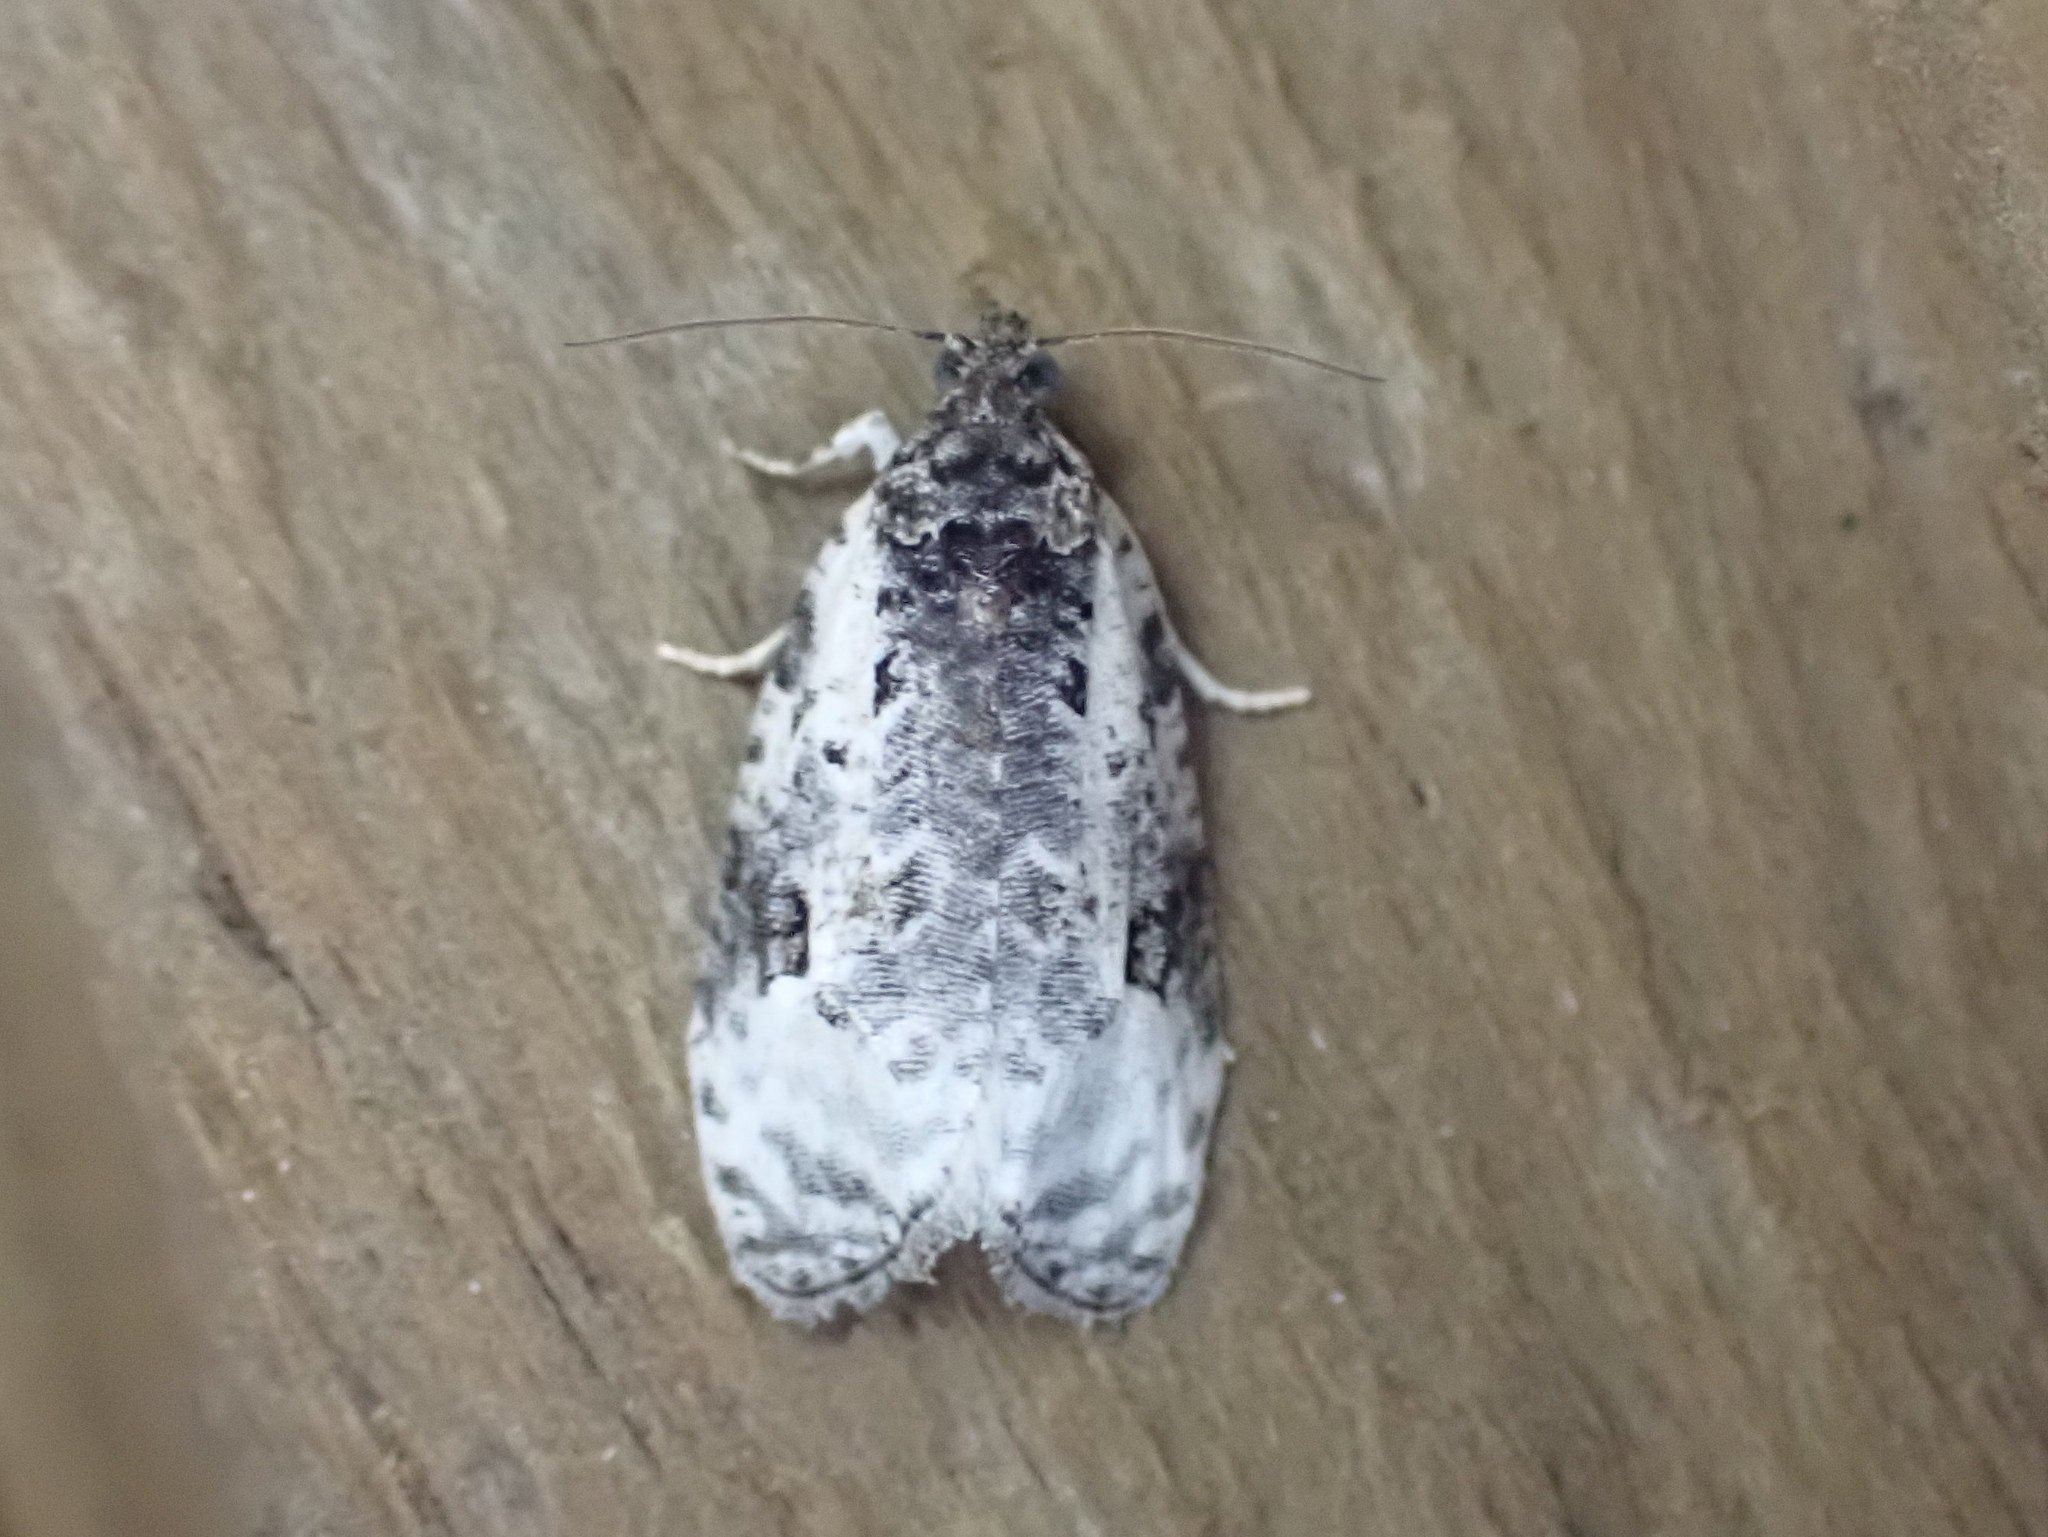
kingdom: Animalia
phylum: Arthropoda
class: Insecta
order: Lepidoptera
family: Tortricidae
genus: Apotomis
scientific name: Apotomis albeolana
